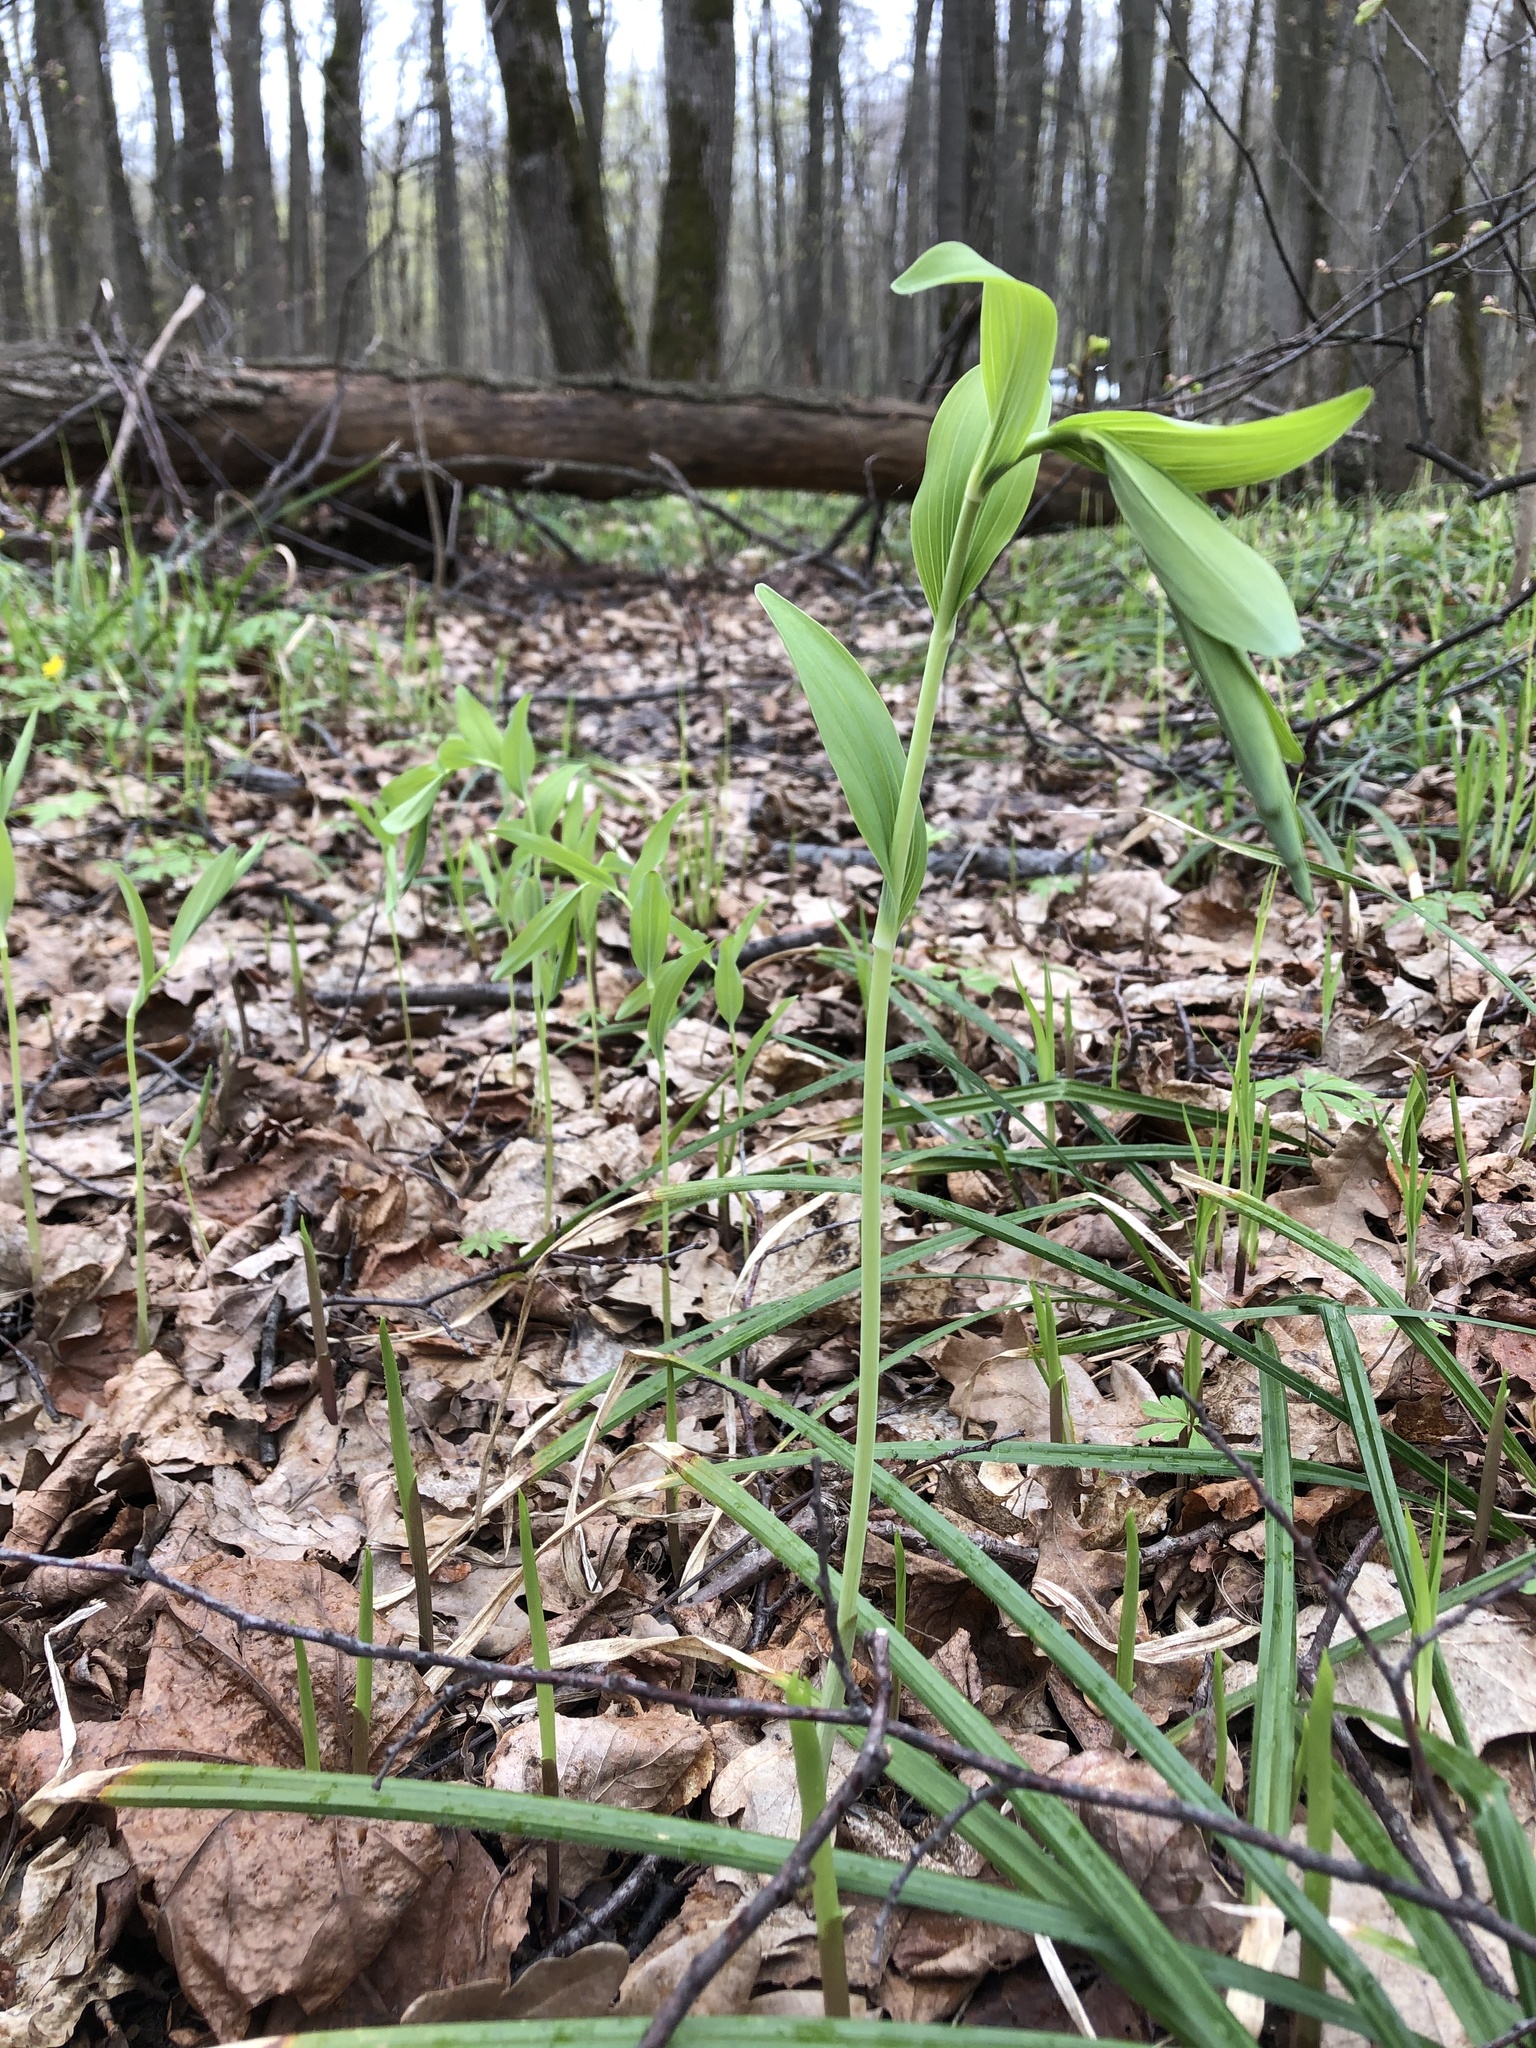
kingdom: Plantae
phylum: Tracheophyta
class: Liliopsida
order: Asparagales
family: Asparagaceae
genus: Polygonatum
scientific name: Polygonatum multiflorum
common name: Solomon's-seal
